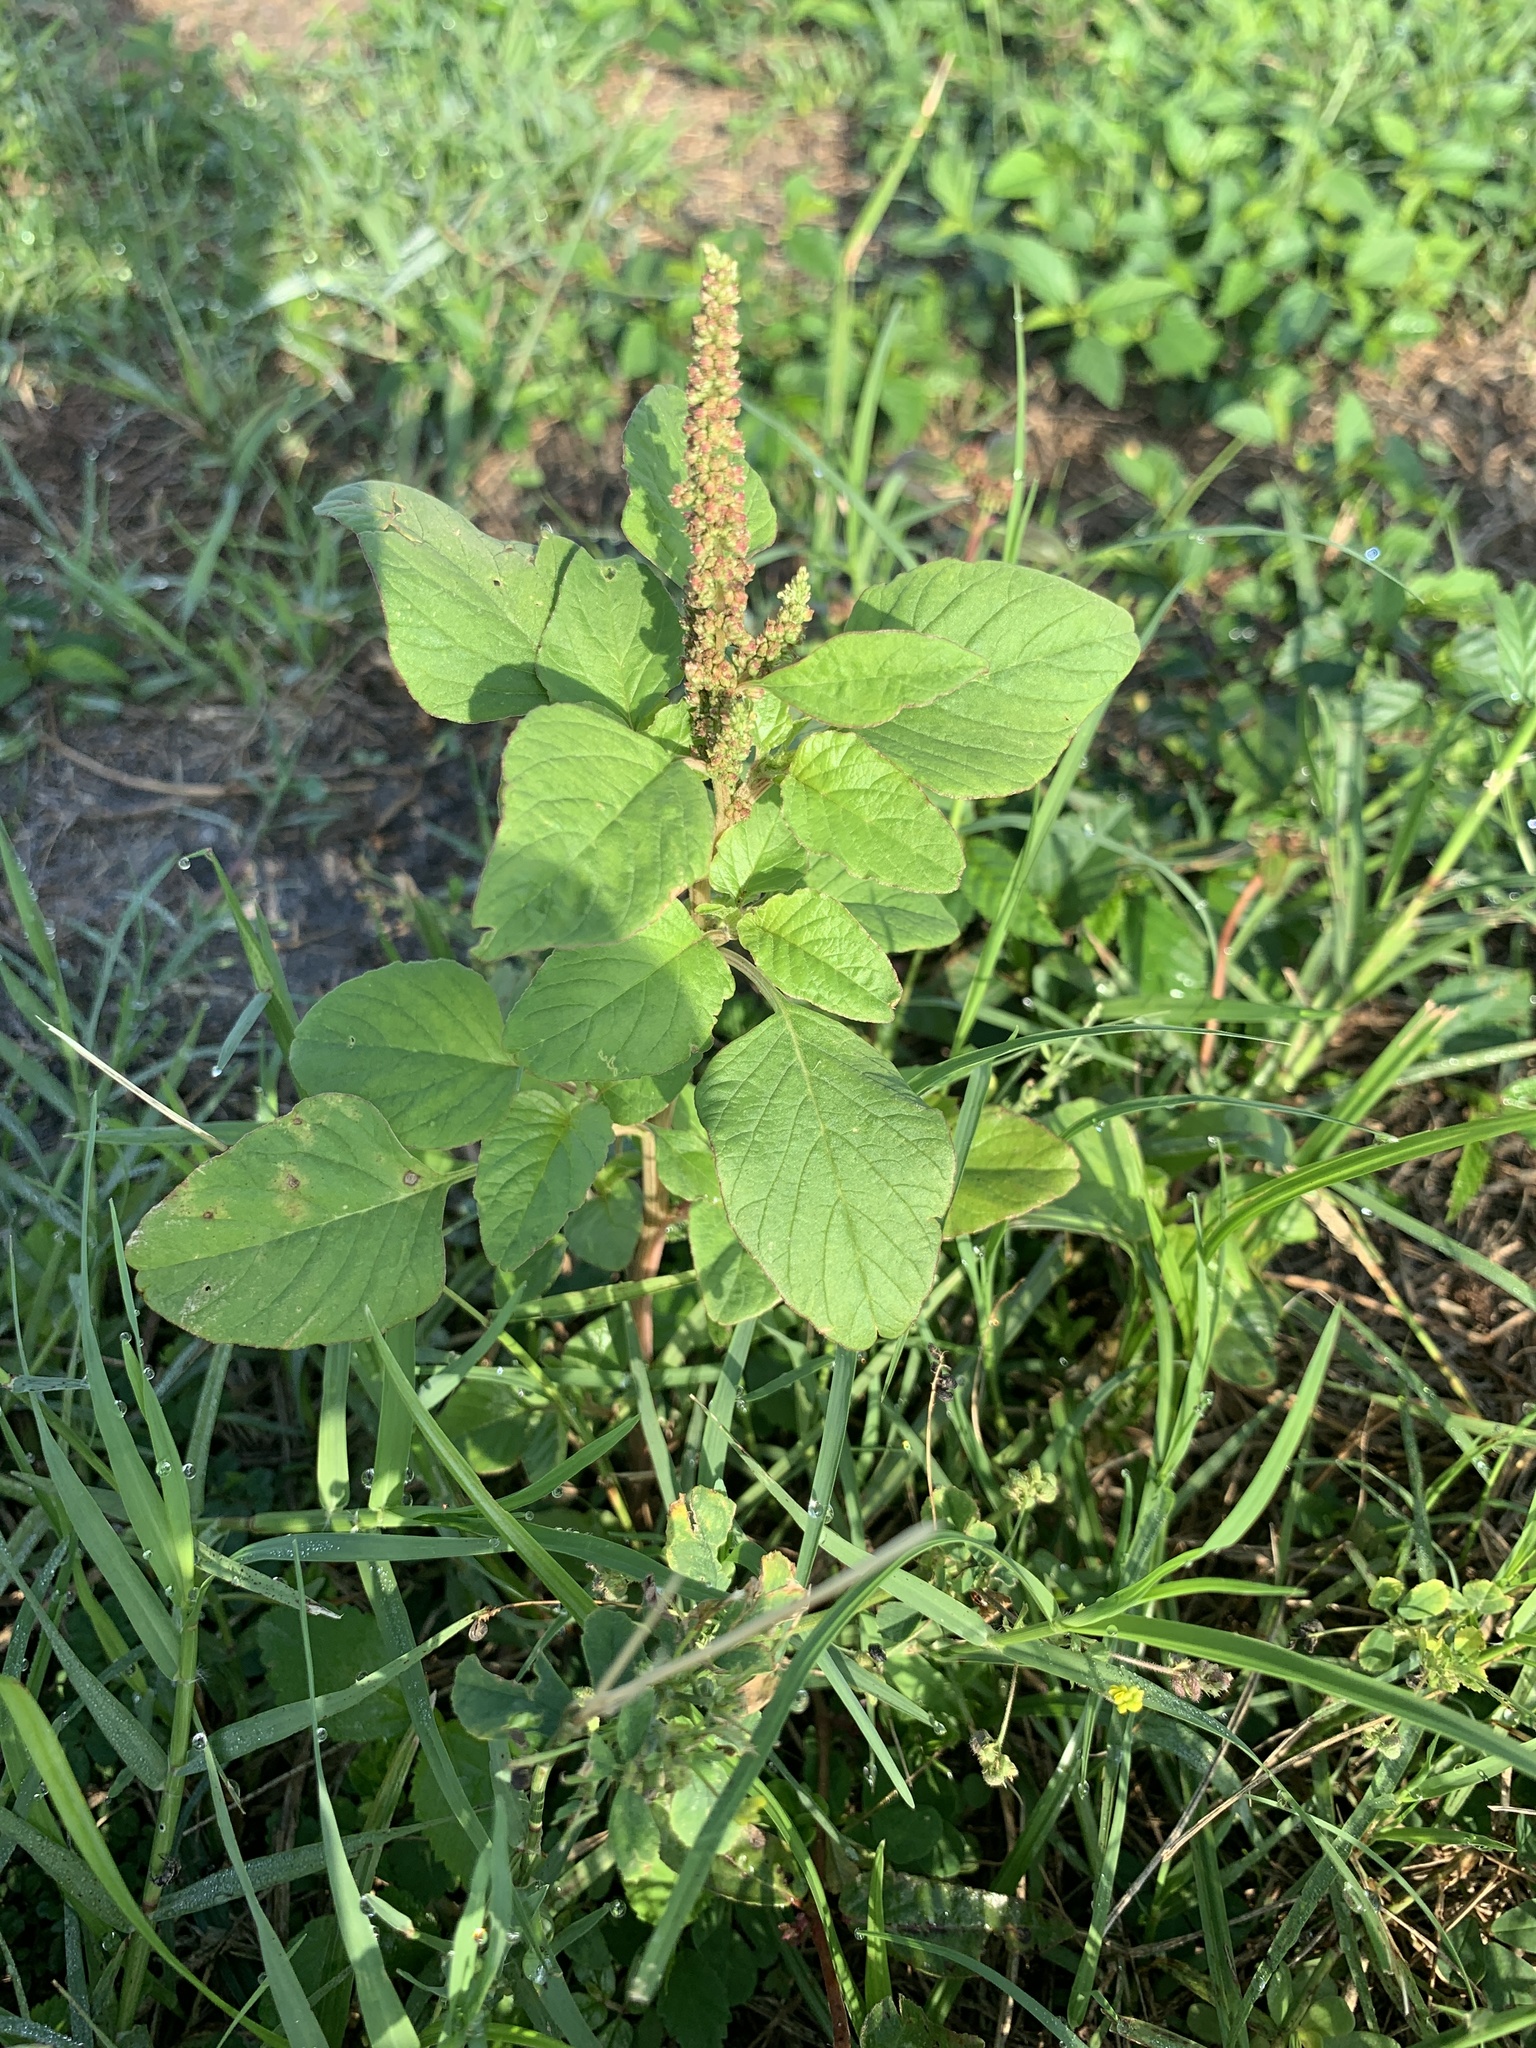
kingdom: Plantae
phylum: Tracheophyta
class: Magnoliopsida
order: Caryophyllales
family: Amaranthaceae
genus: Amaranthus
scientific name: Amaranthus viridis
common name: Slender amaranth
